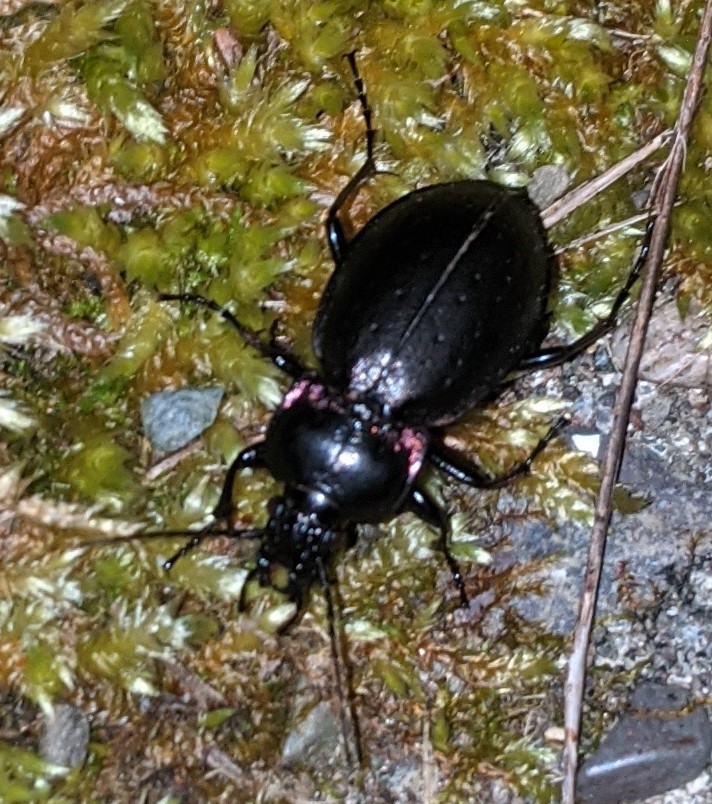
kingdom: Animalia
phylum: Arthropoda
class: Insecta
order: Coleoptera
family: Carabidae
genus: Carabus
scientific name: Carabus nemoralis
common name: European ground beetle
